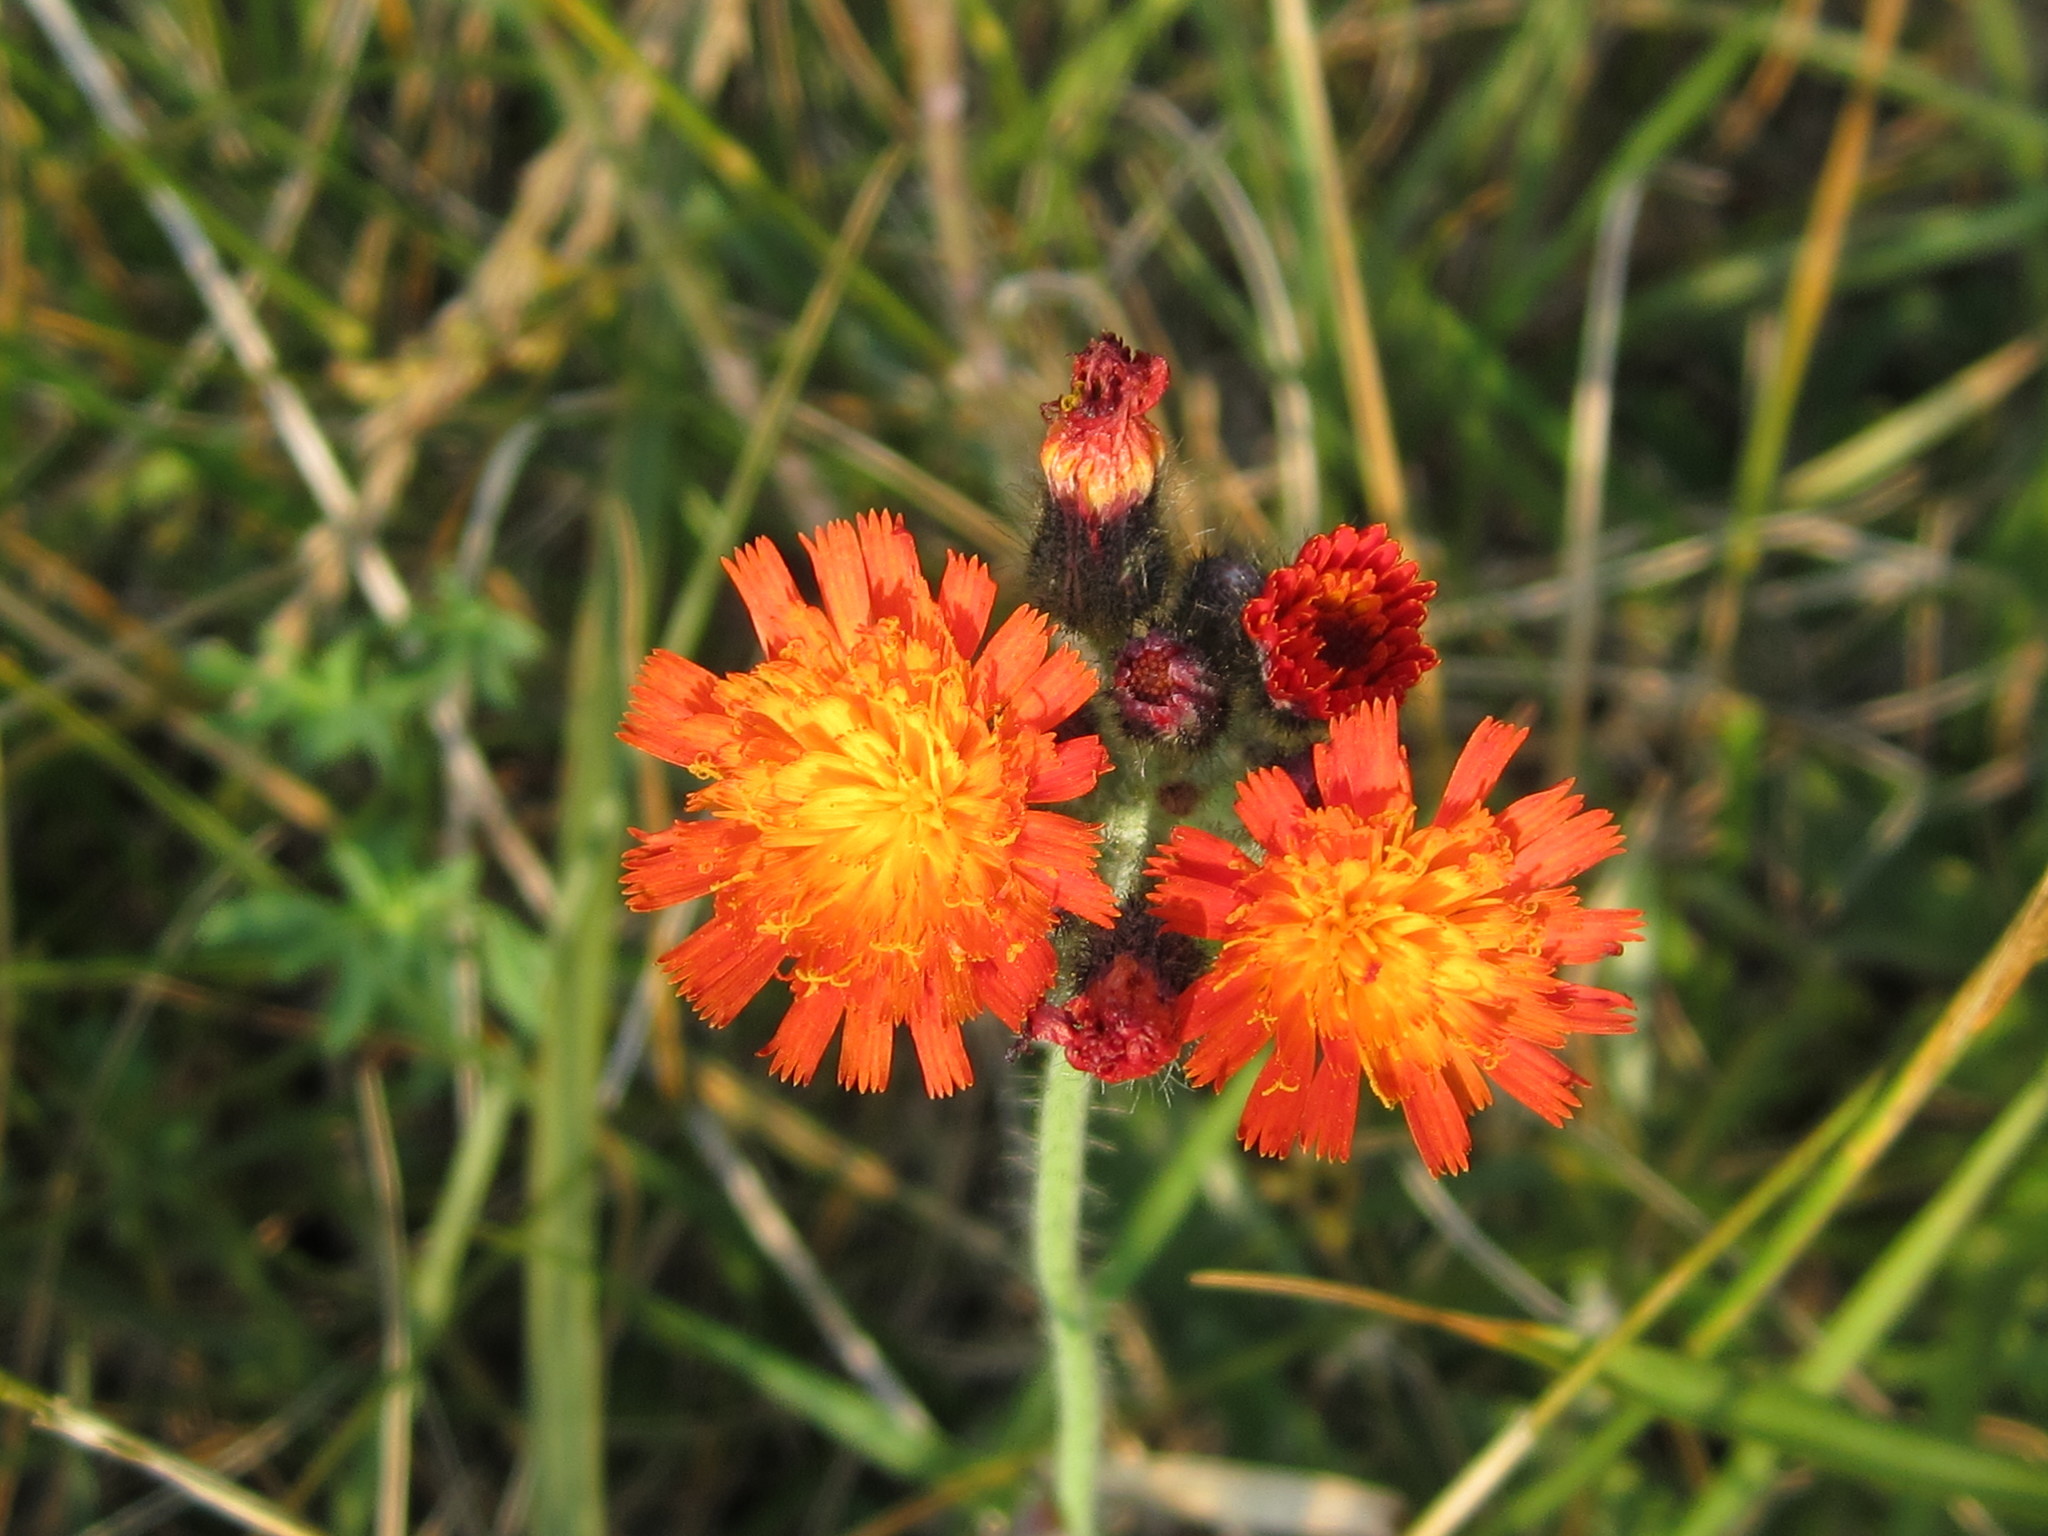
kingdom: Plantae
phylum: Tracheophyta
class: Magnoliopsida
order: Asterales
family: Asteraceae
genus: Pilosella
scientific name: Pilosella aurantiaca
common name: Fox-and-cubs
